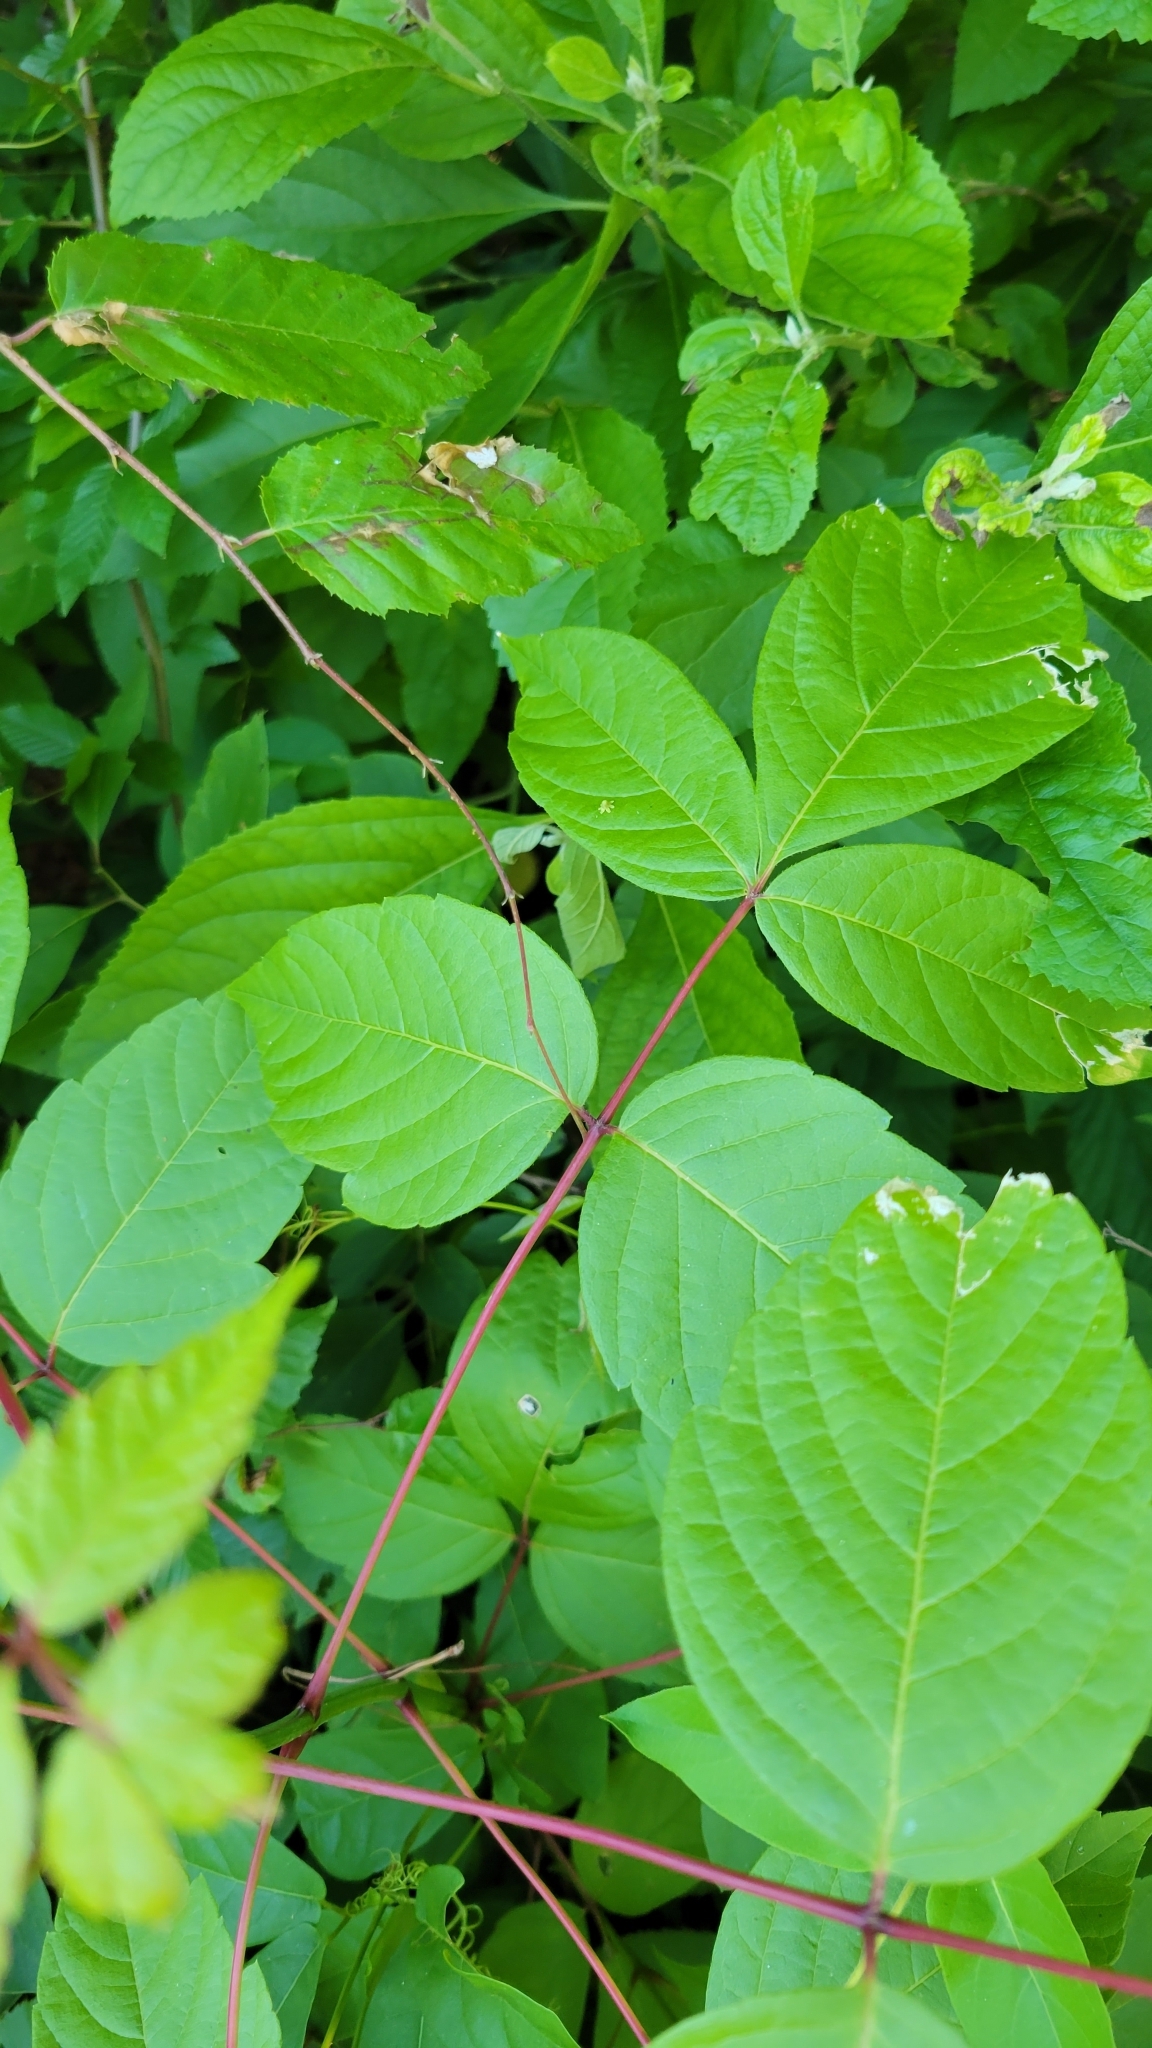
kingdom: Plantae
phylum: Tracheophyta
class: Magnoliopsida
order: Sapindales
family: Sapindaceae
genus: Acer
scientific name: Acer negundo
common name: Ashleaf maple
